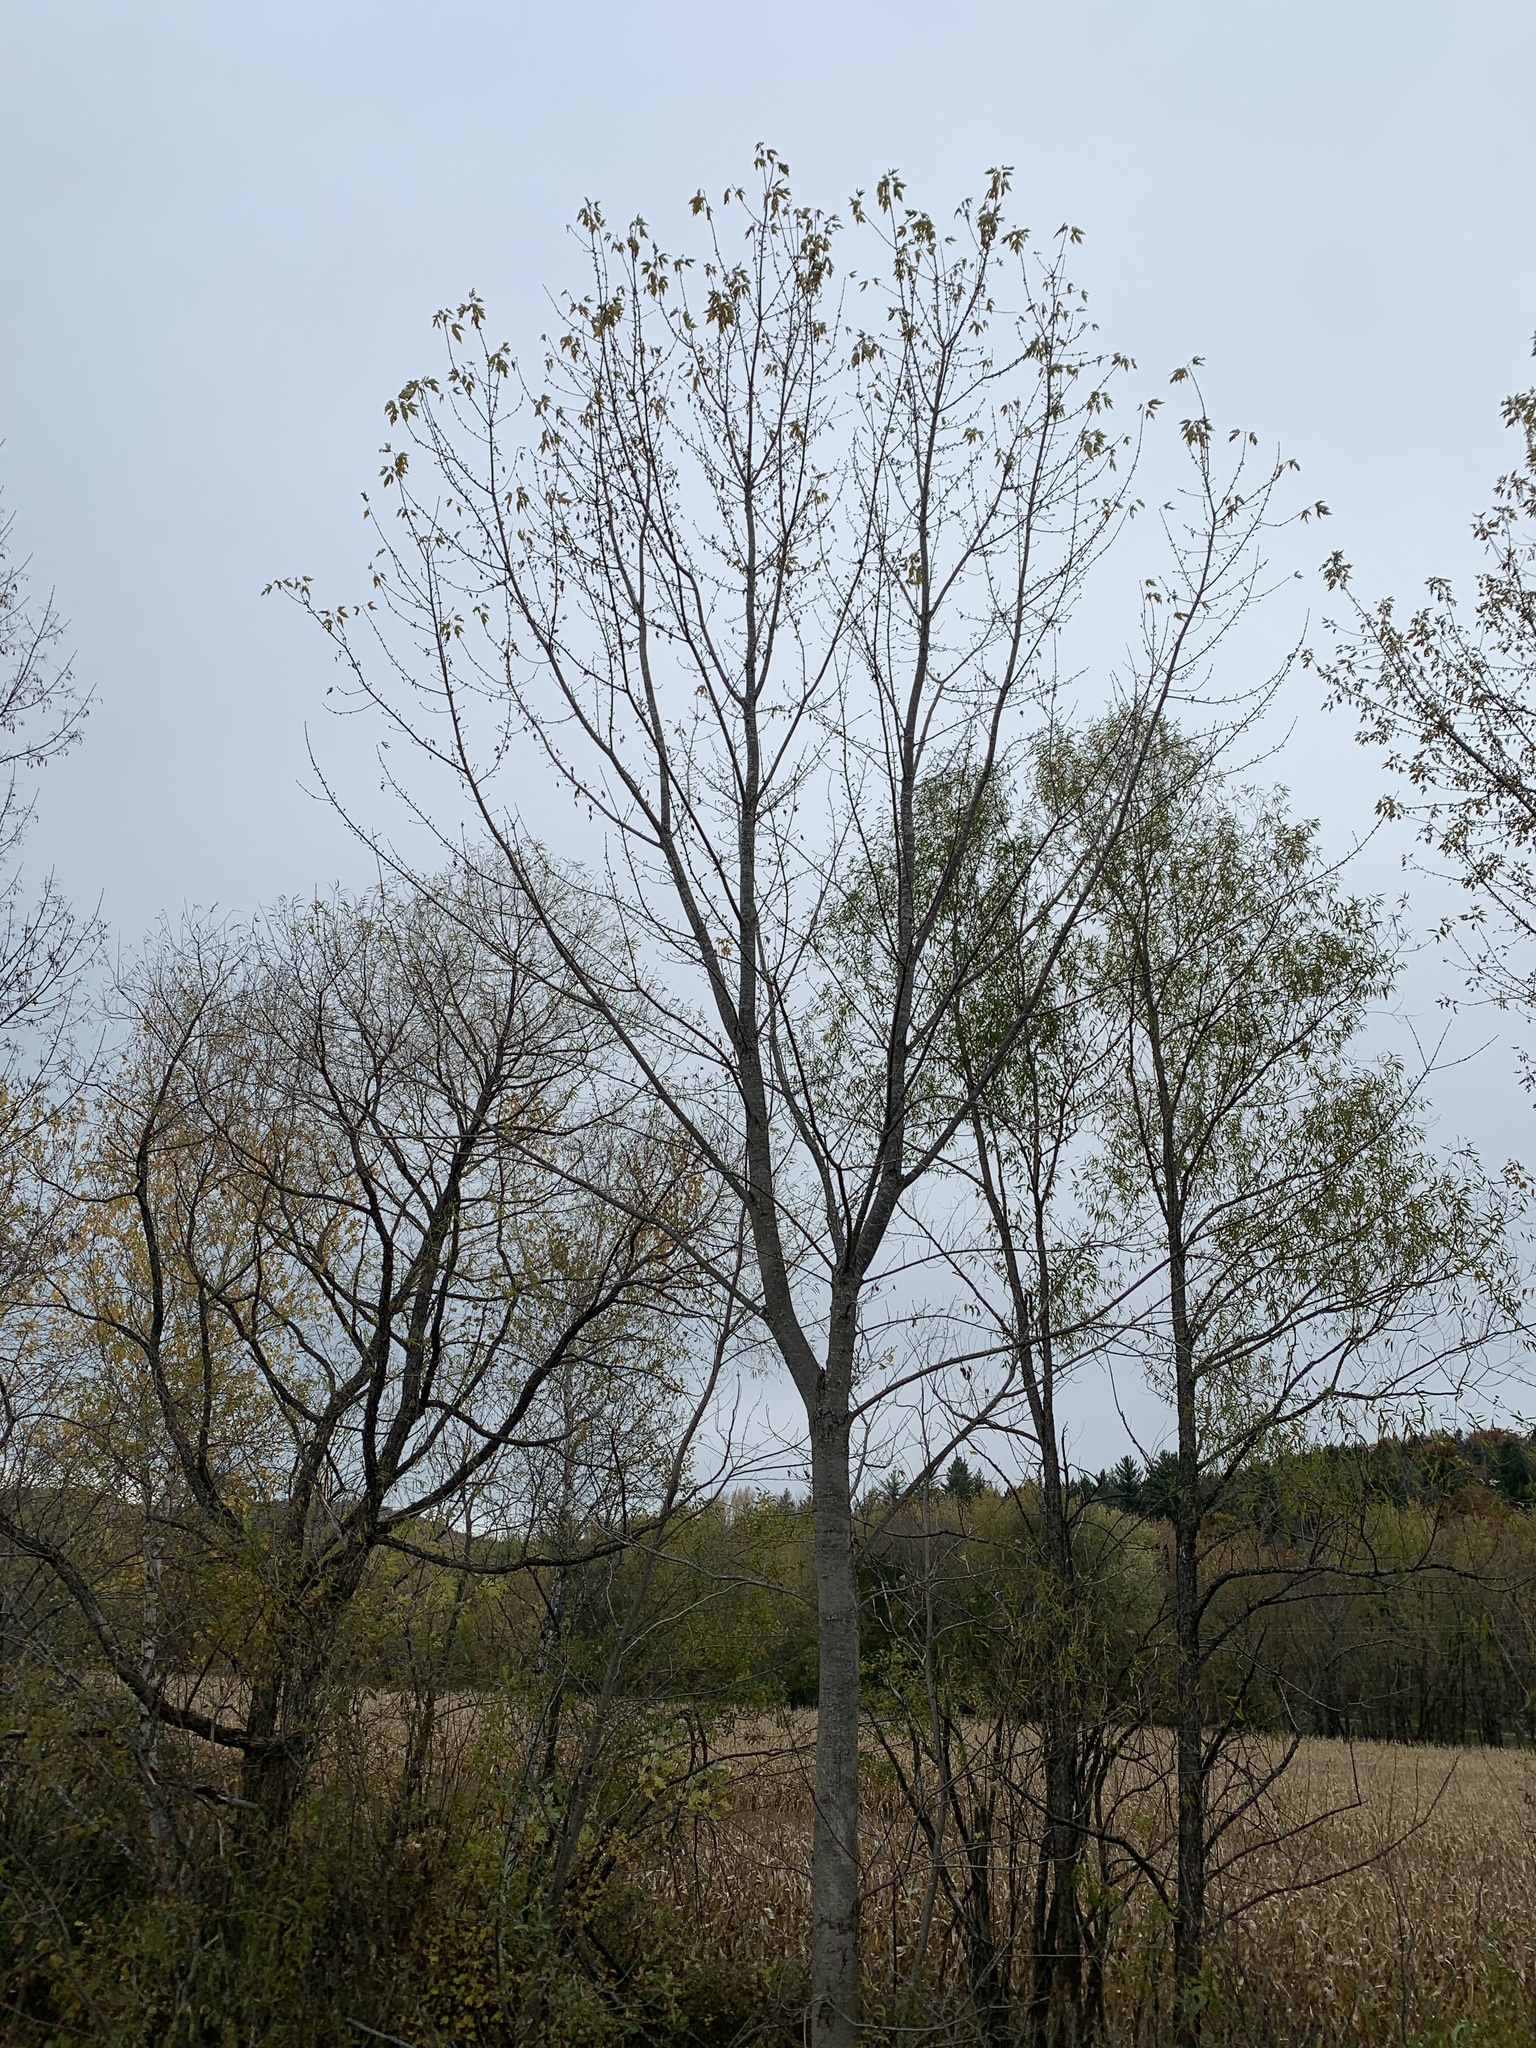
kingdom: Plantae
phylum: Tracheophyta
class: Magnoliopsida
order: Sapindales
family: Sapindaceae
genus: Acer
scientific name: Acer saccharinum
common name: Silver maple
